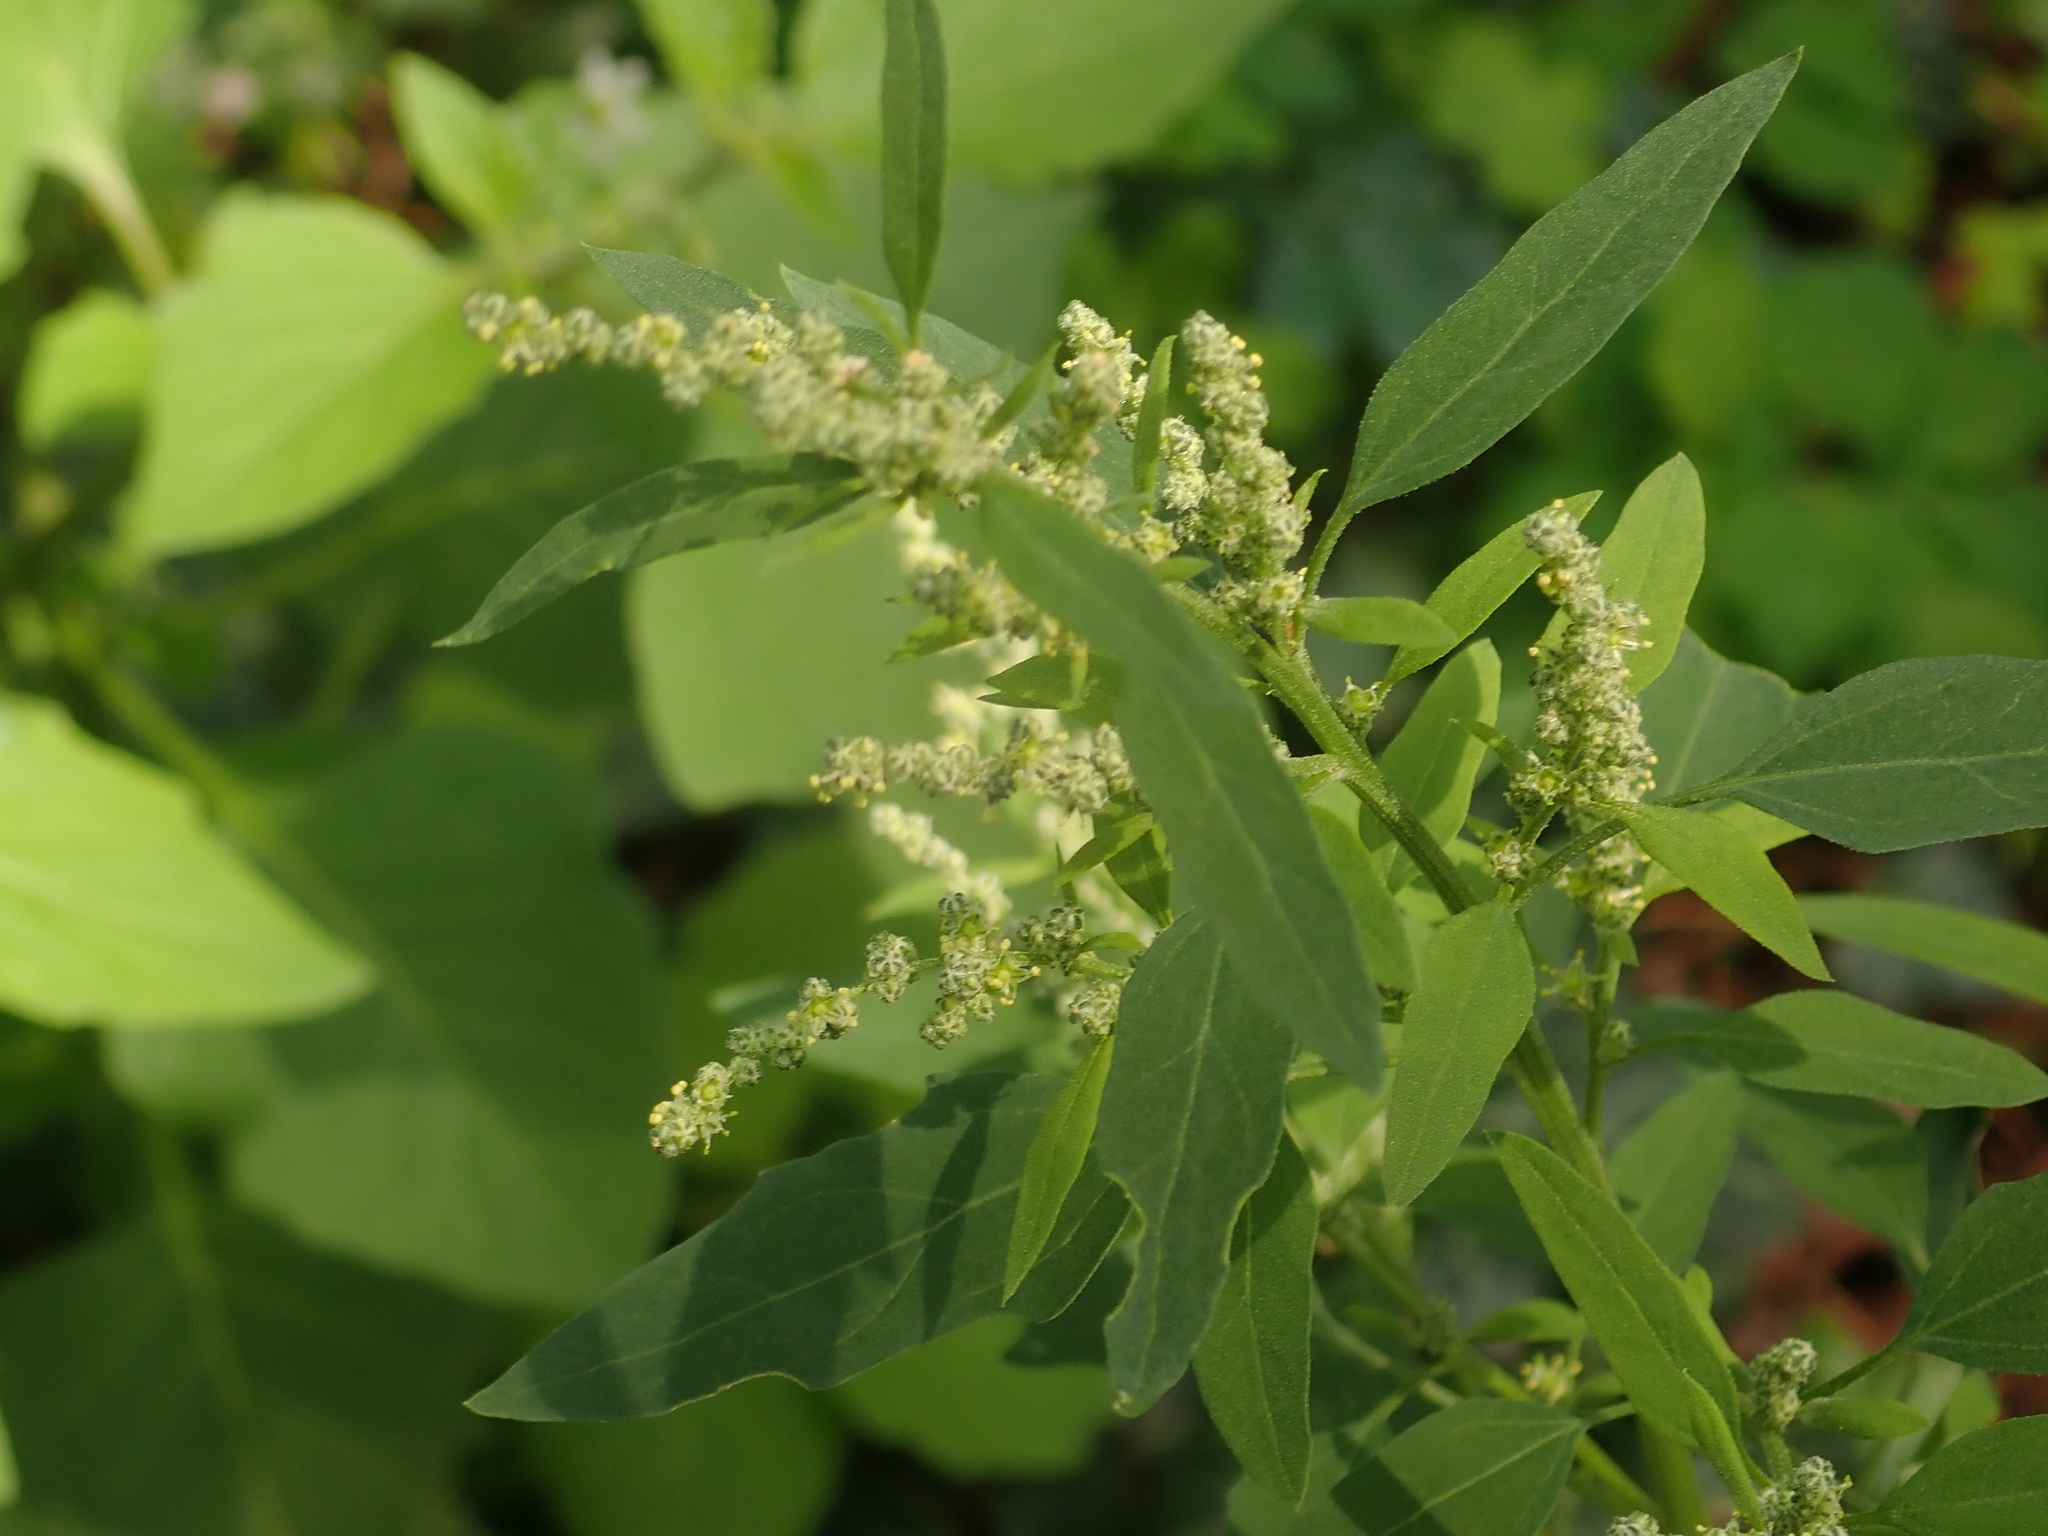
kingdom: Plantae
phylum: Tracheophyta
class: Magnoliopsida
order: Caryophyllales
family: Amaranthaceae
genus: Chenopodium
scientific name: Chenopodium album
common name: Fat-hen
